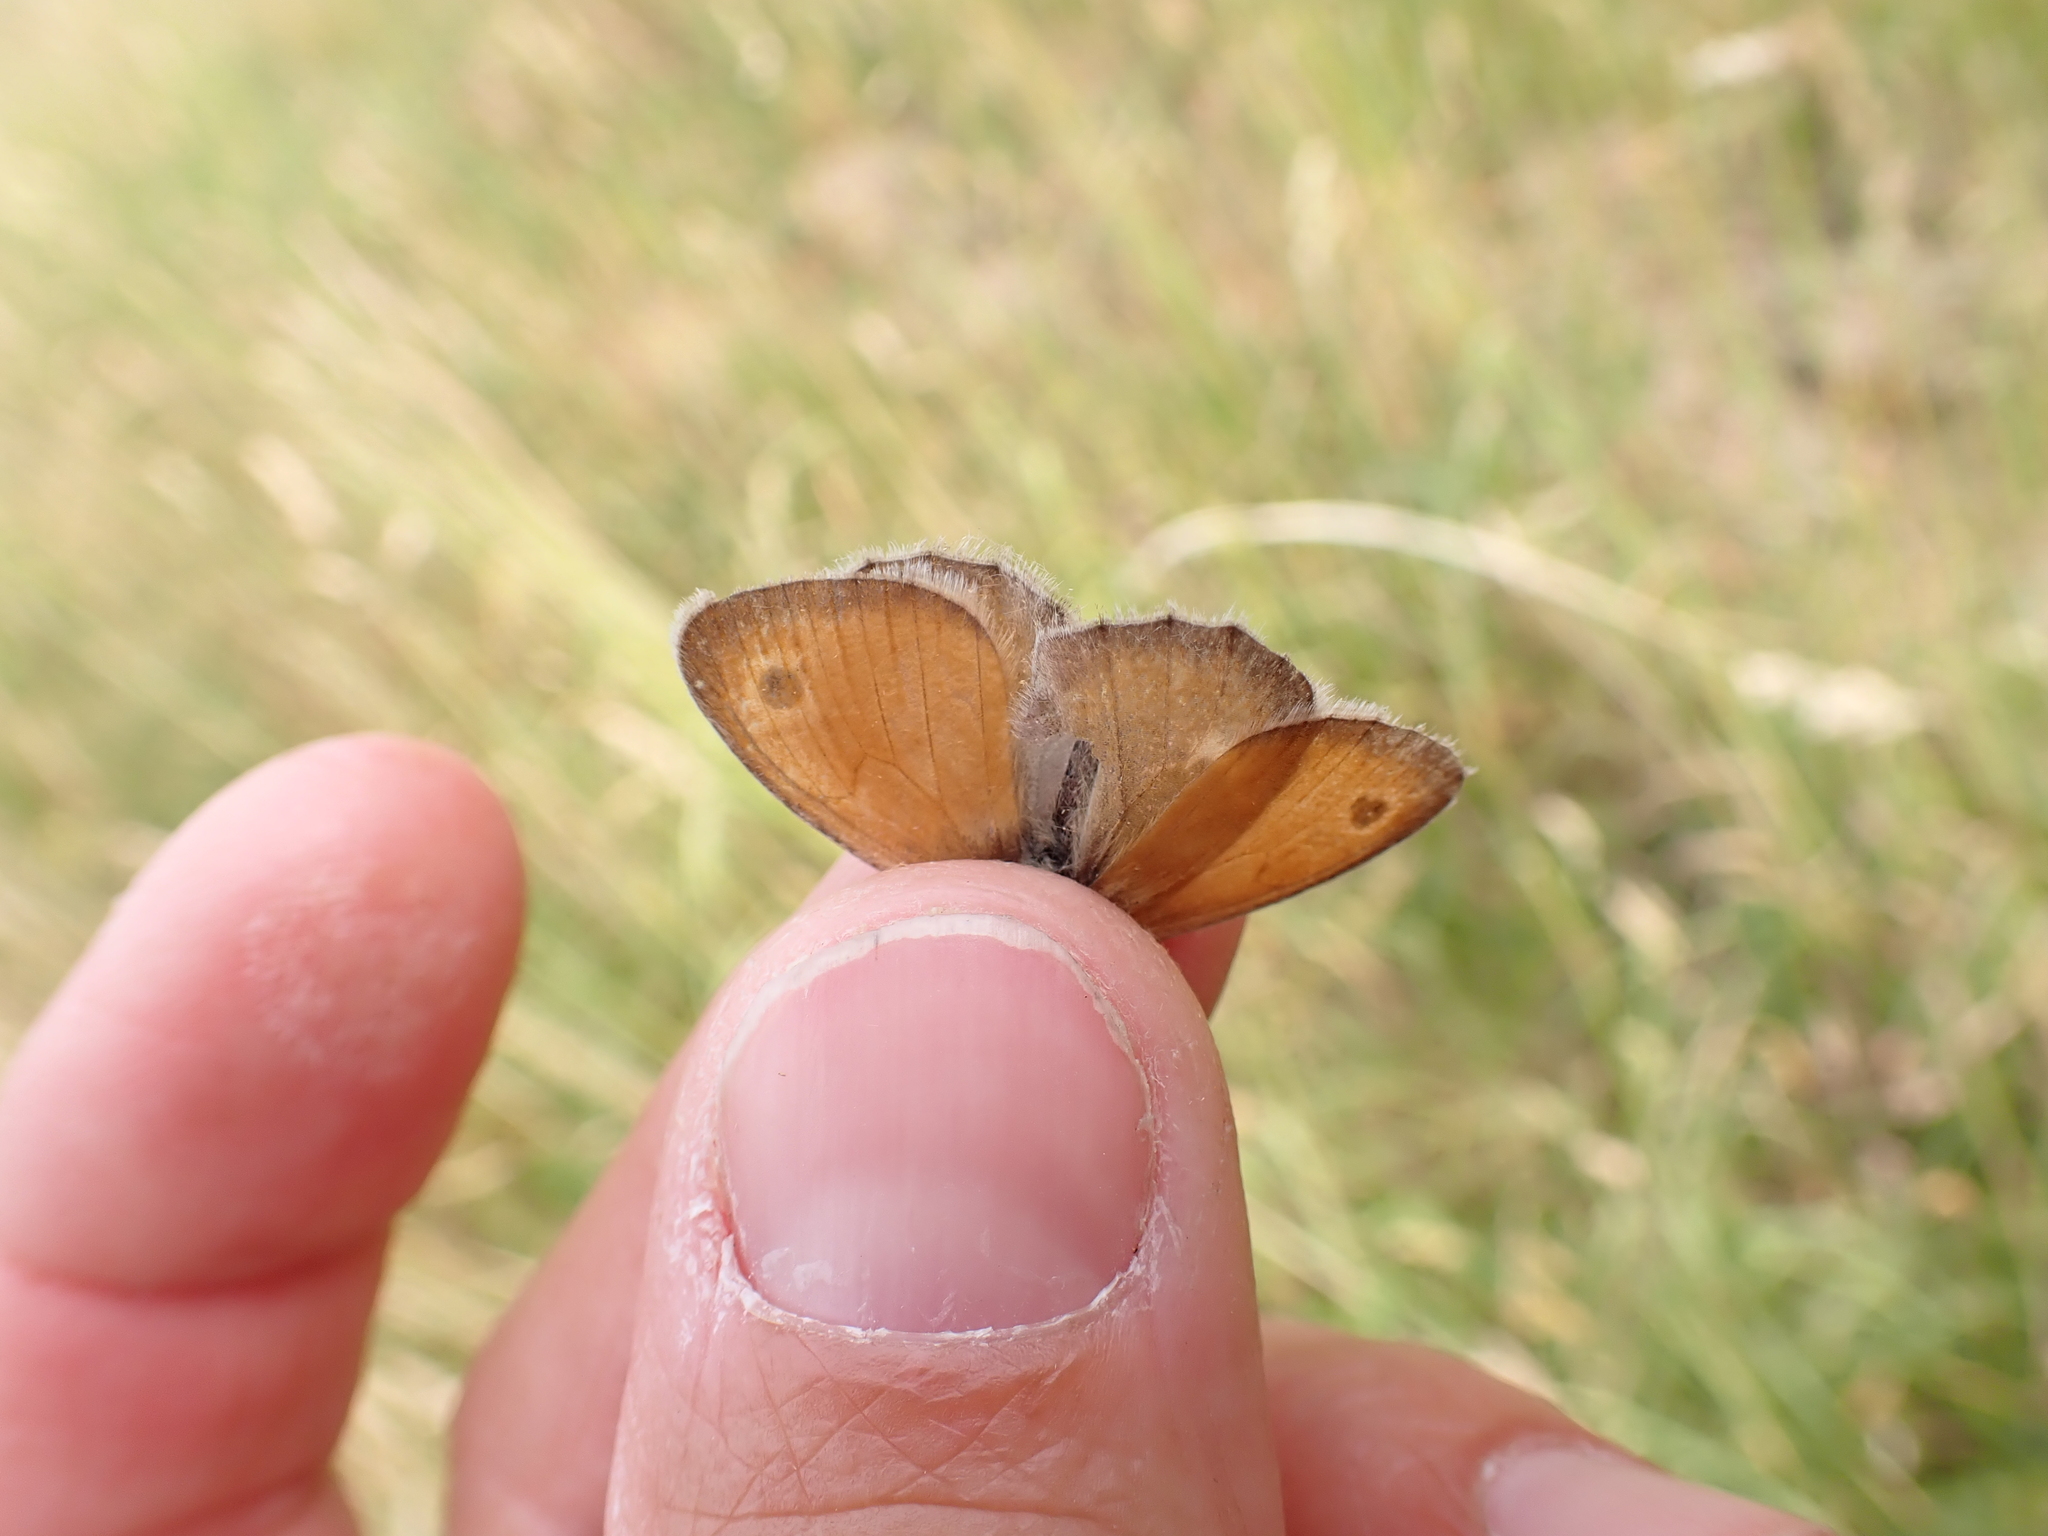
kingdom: Animalia
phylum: Arthropoda
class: Insecta
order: Lepidoptera
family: Nymphalidae
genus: Coenonympha
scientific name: Coenonympha pamphilus
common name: Small heath
